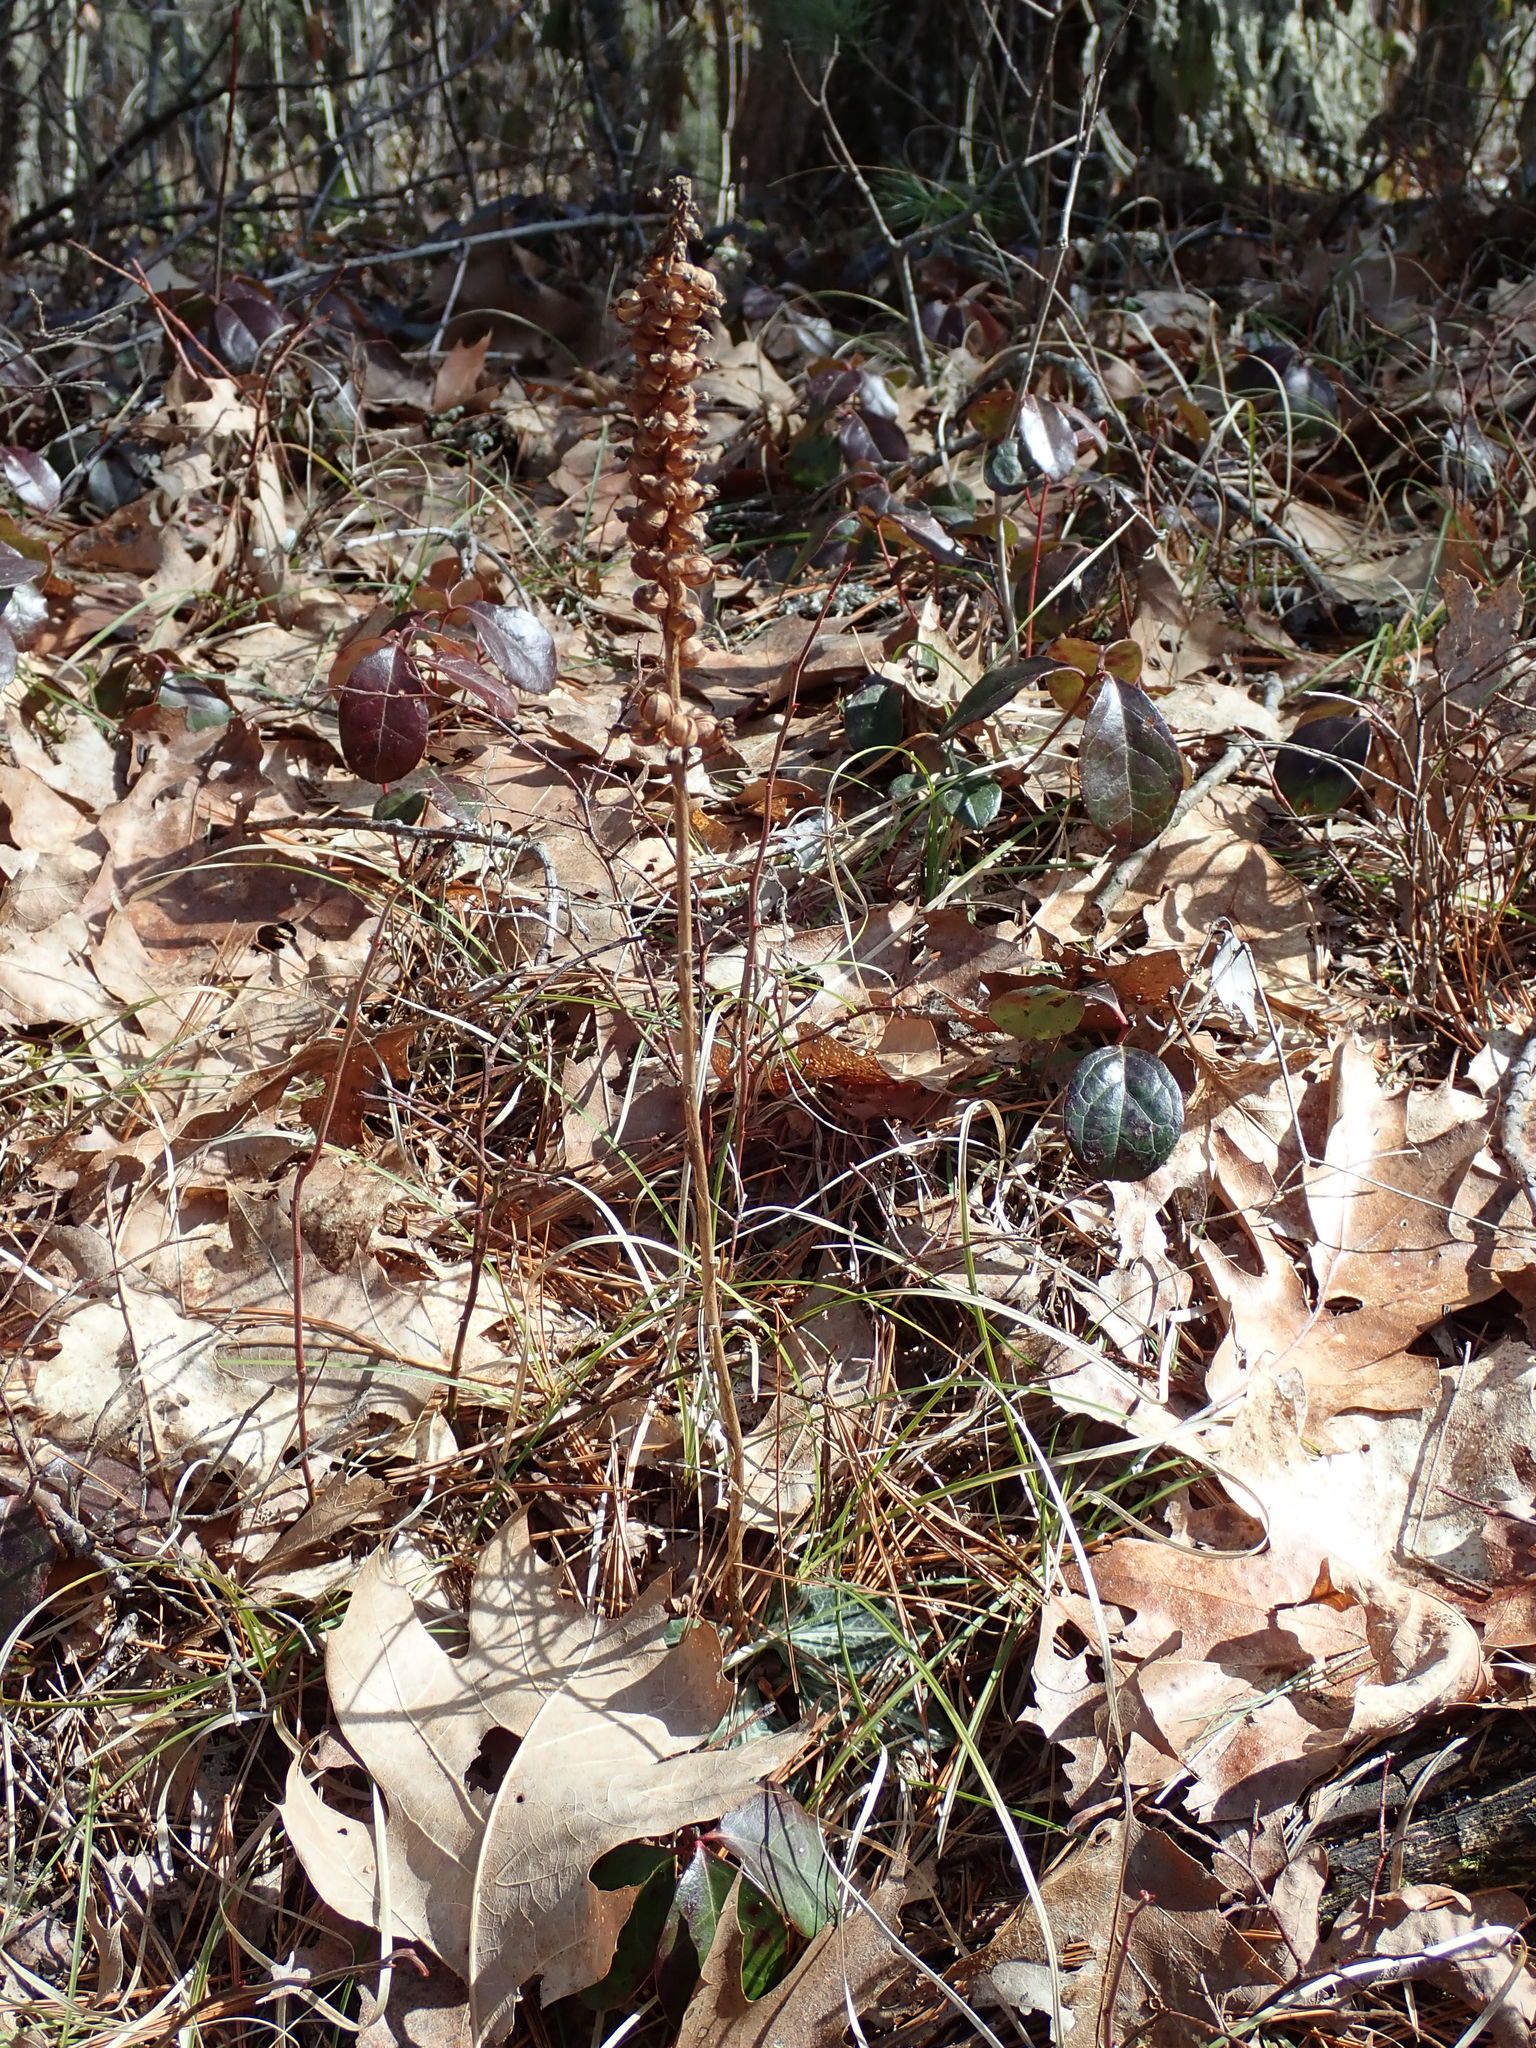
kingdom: Plantae
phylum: Tracheophyta
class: Liliopsida
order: Asparagales
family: Orchidaceae
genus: Goodyera
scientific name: Goodyera pubescens
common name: Downy rattlesnake-plantain
